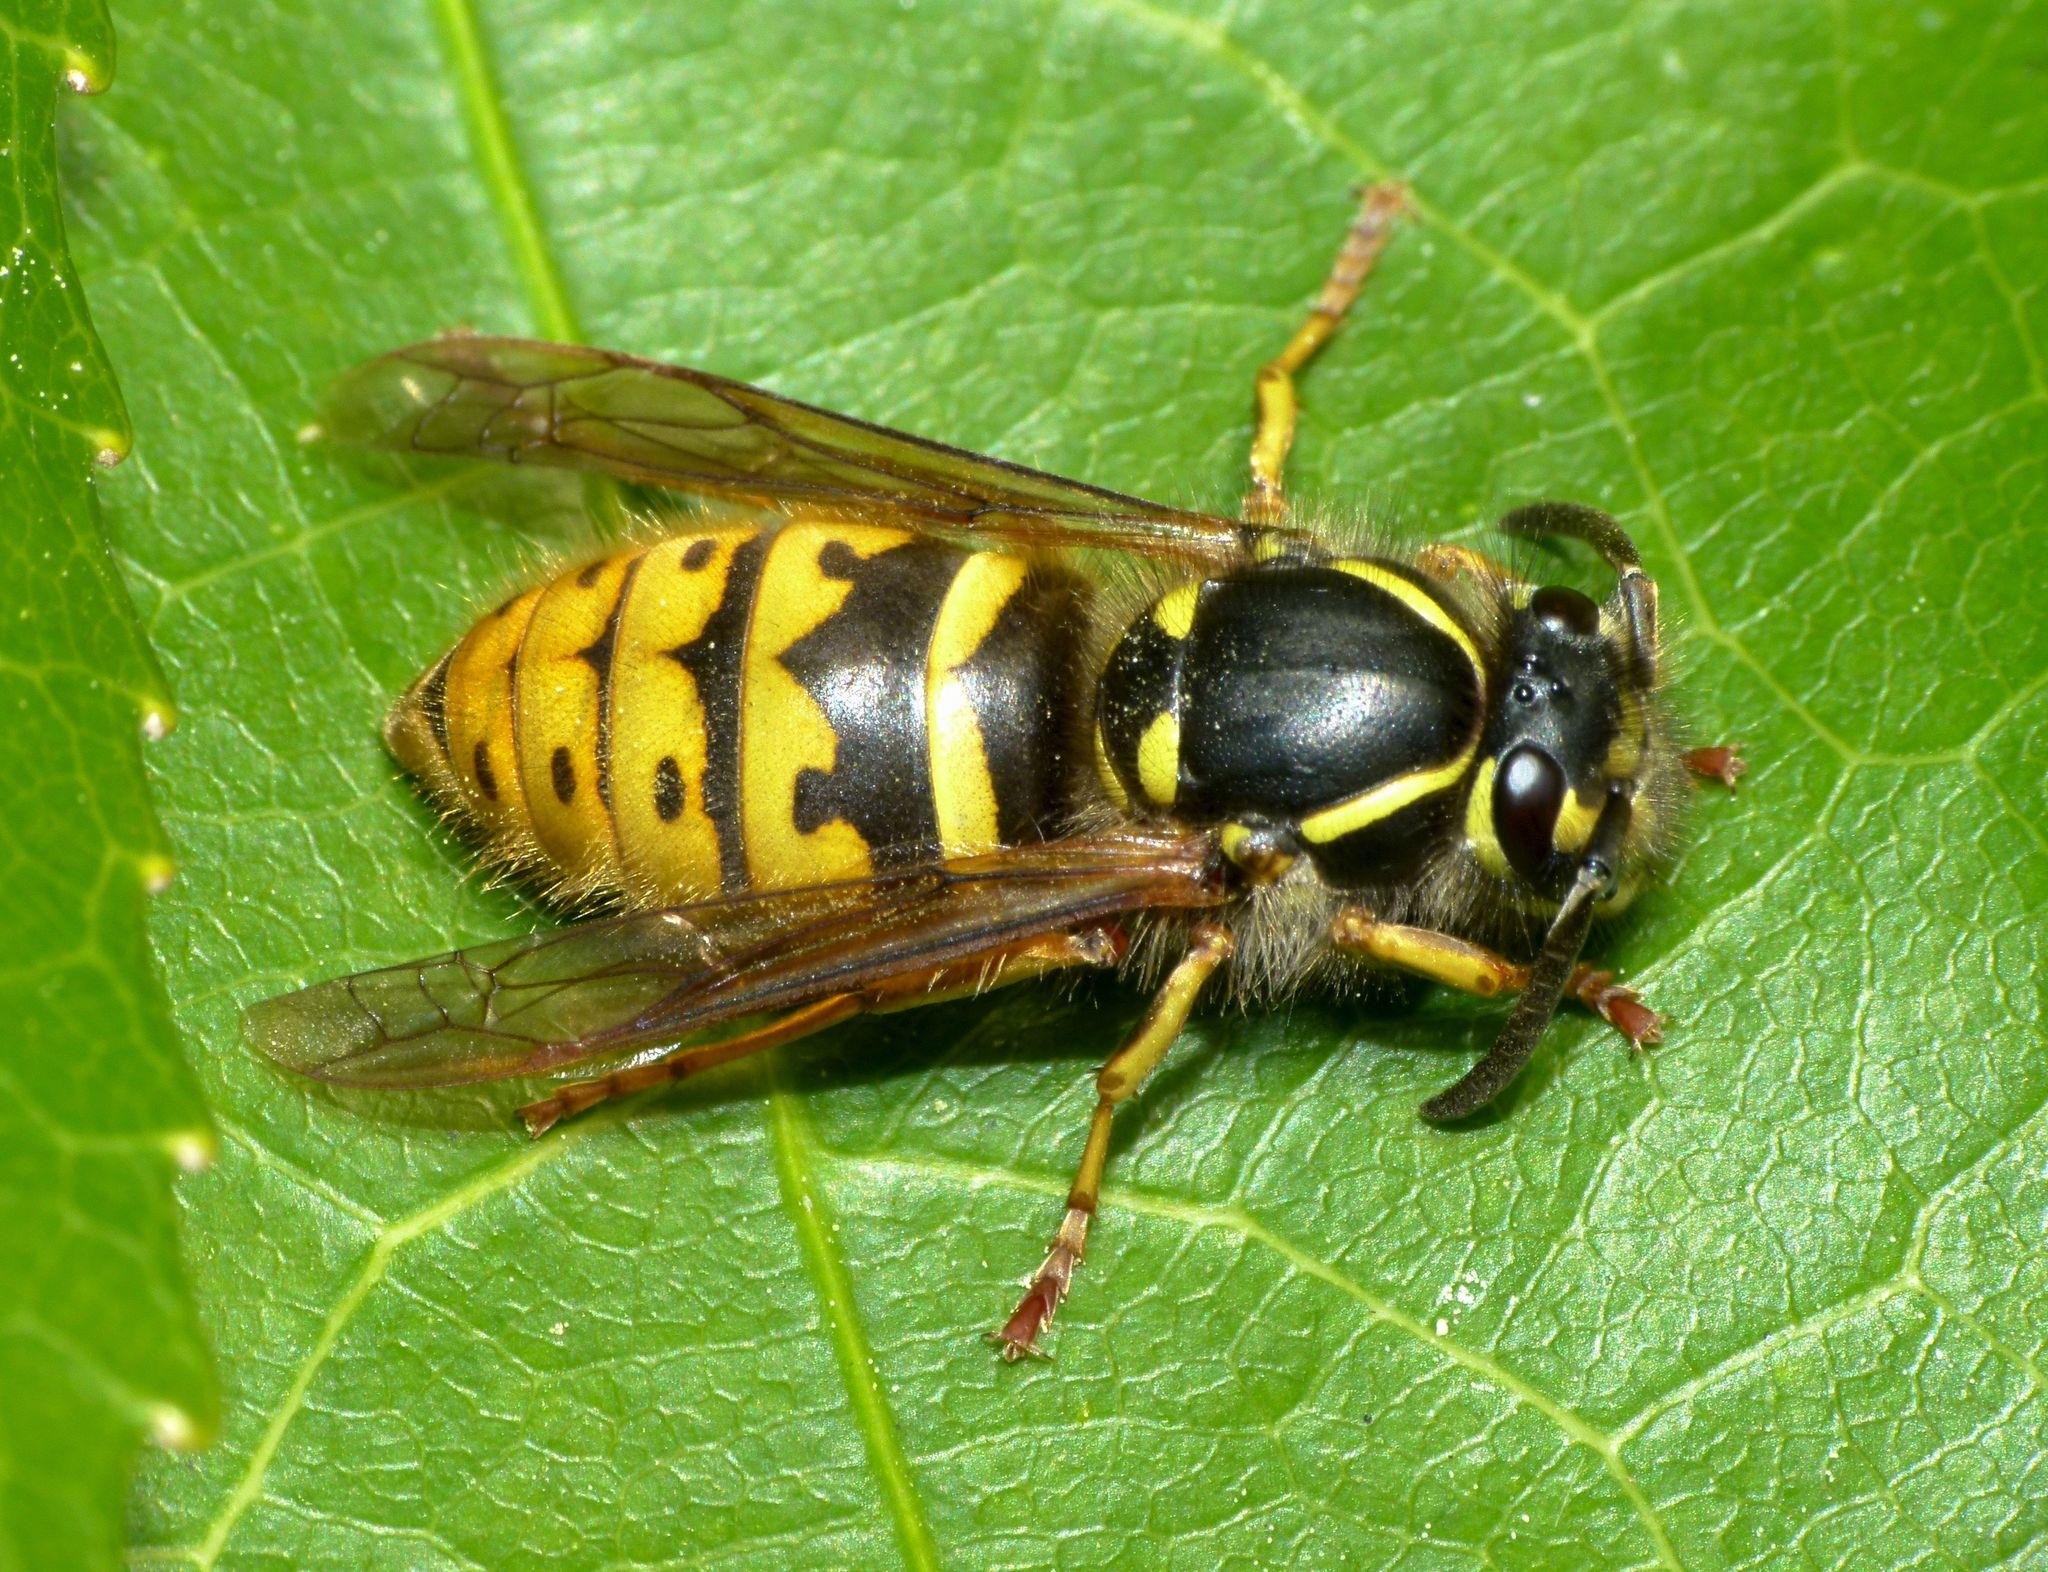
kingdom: Animalia
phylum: Arthropoda
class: Insecta
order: Hymenoptera
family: Vespidae
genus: Vespula
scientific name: Vespula vulgaris
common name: Common wasp
